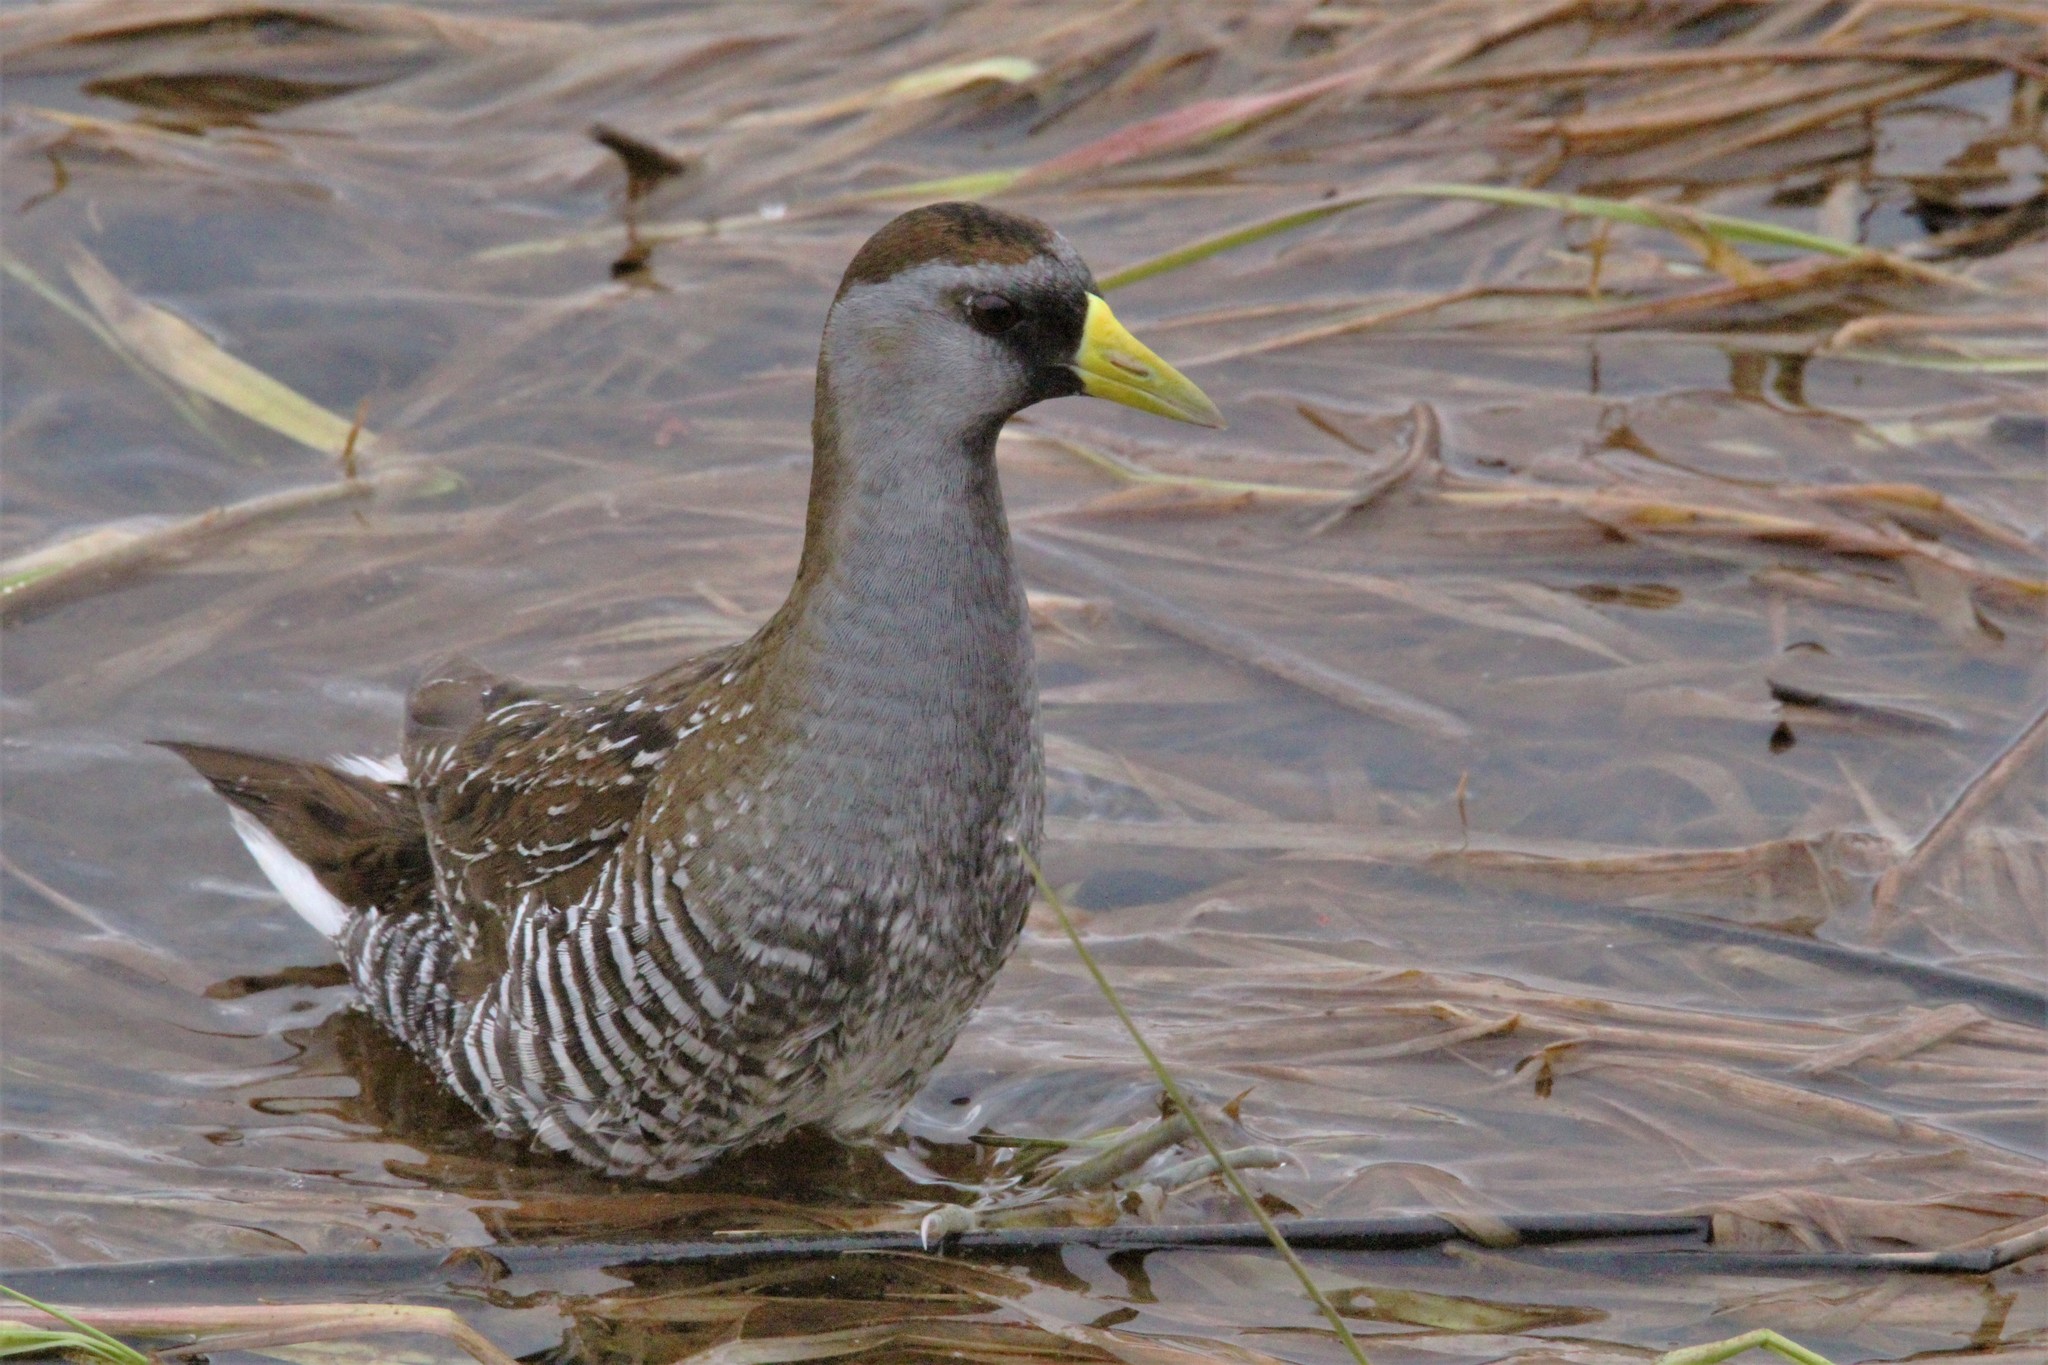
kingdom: Animalia
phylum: Chordata
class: Aves
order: Gruiformes
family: Rallidae
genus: Porzana
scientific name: Porzana carolina
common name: Sora
